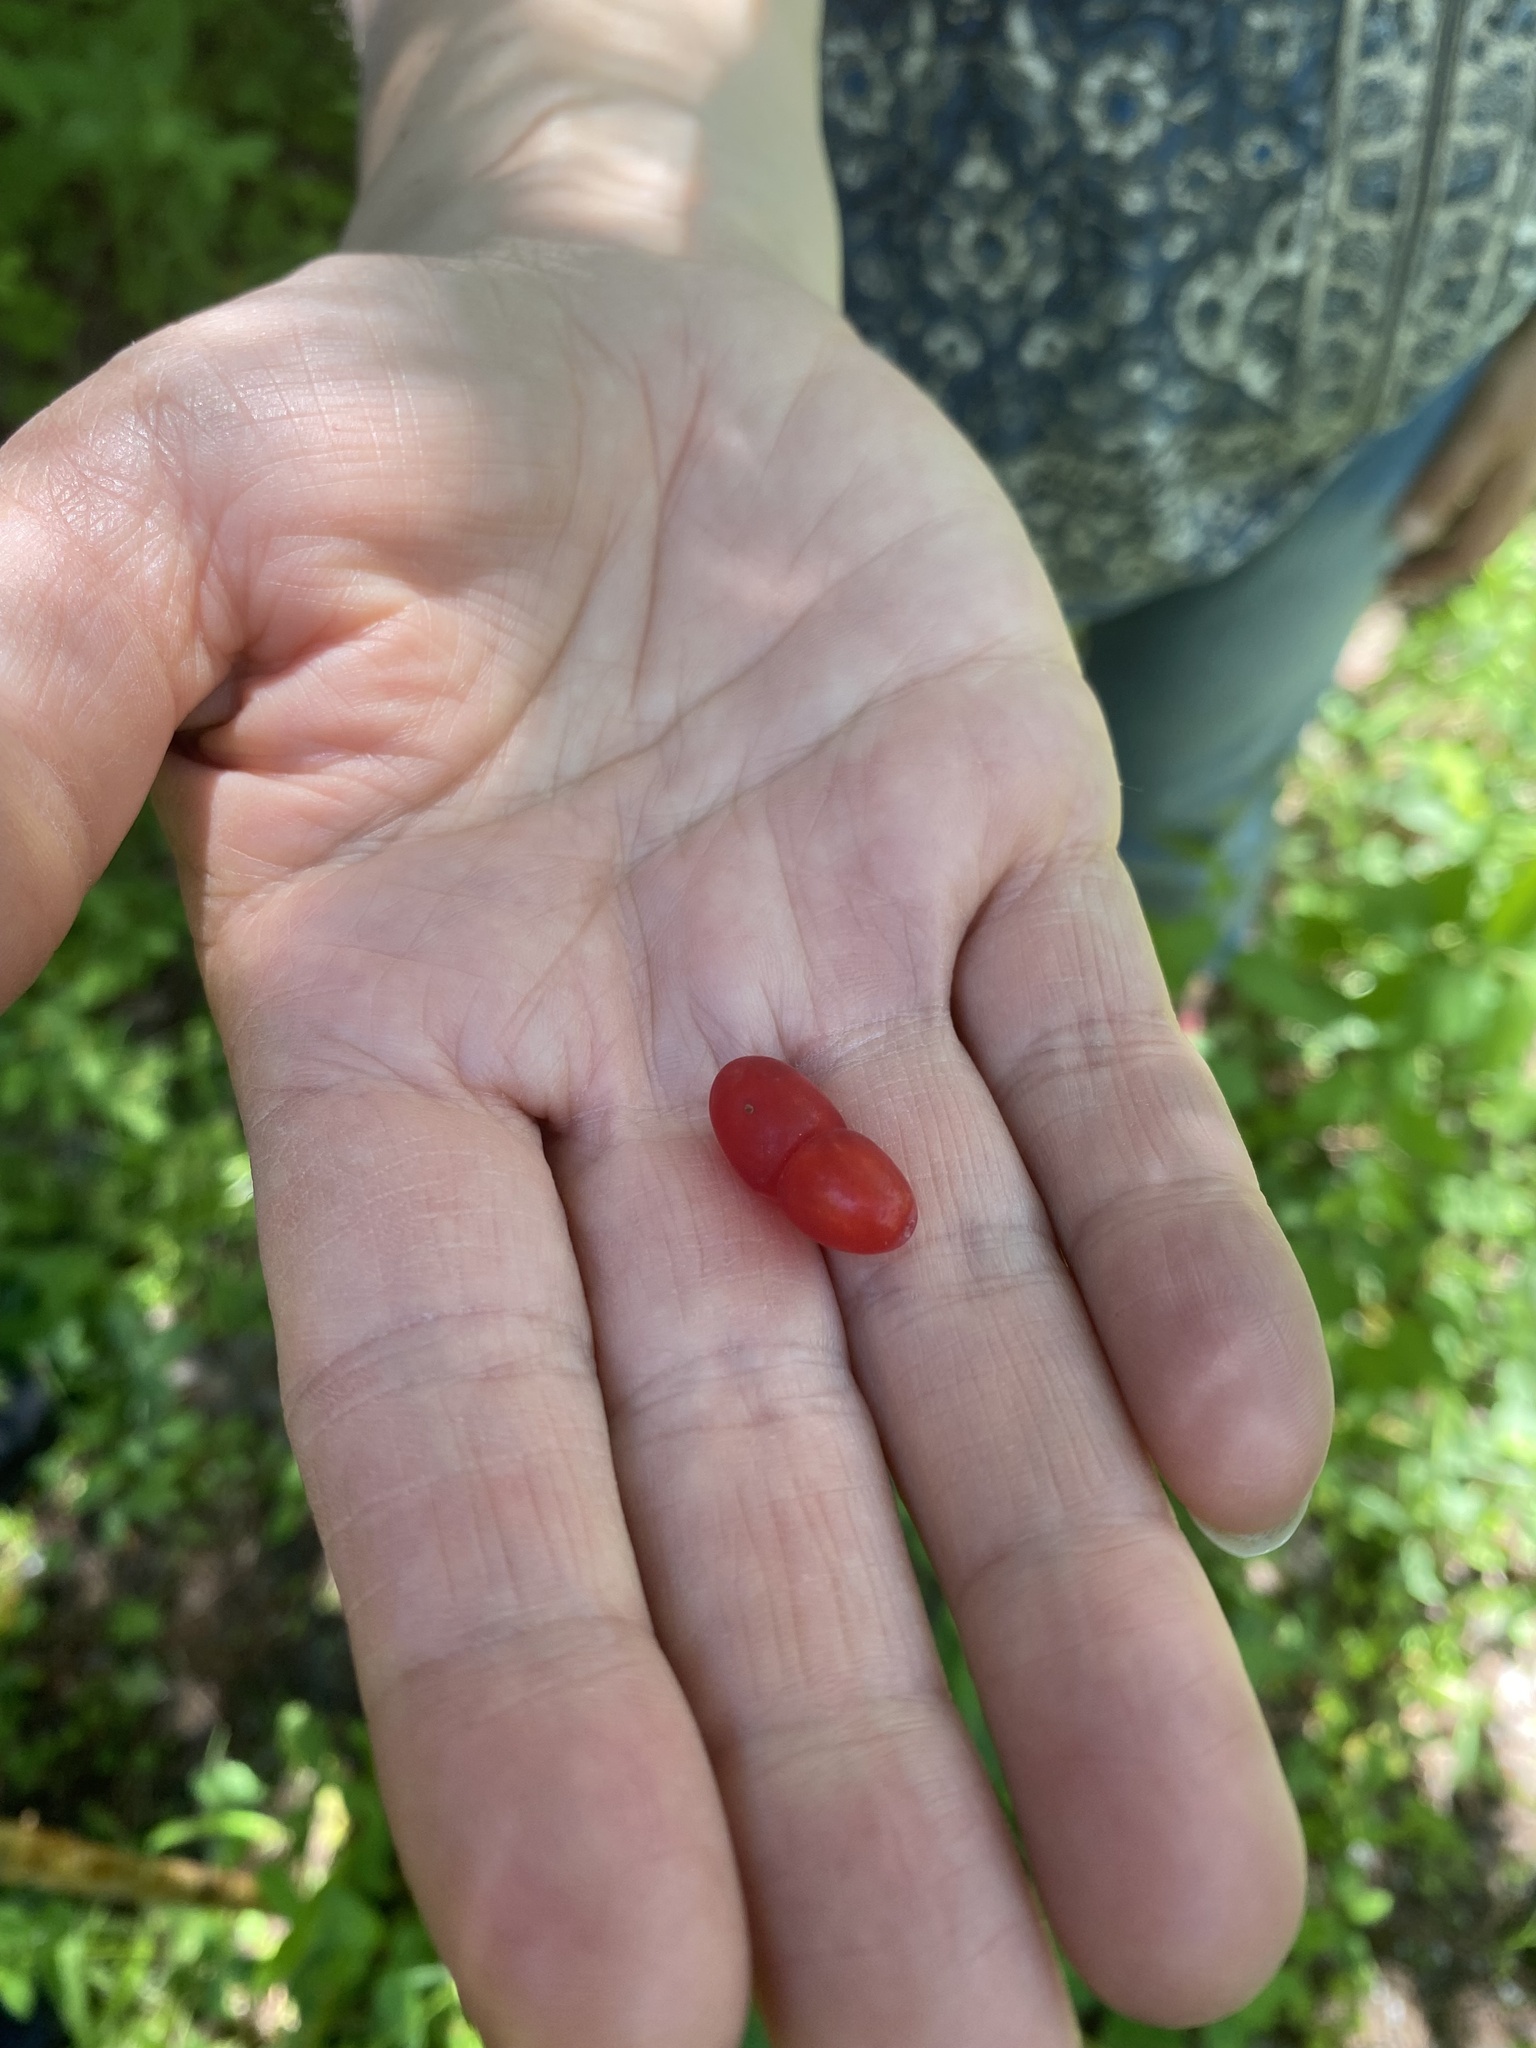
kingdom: Plantae
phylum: Tracheophyta
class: Magnoliopsida
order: Dipsacales
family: Caprifoliaceae
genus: Lonicera
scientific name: Lonicera utahensis
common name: Utah honeysuckle
